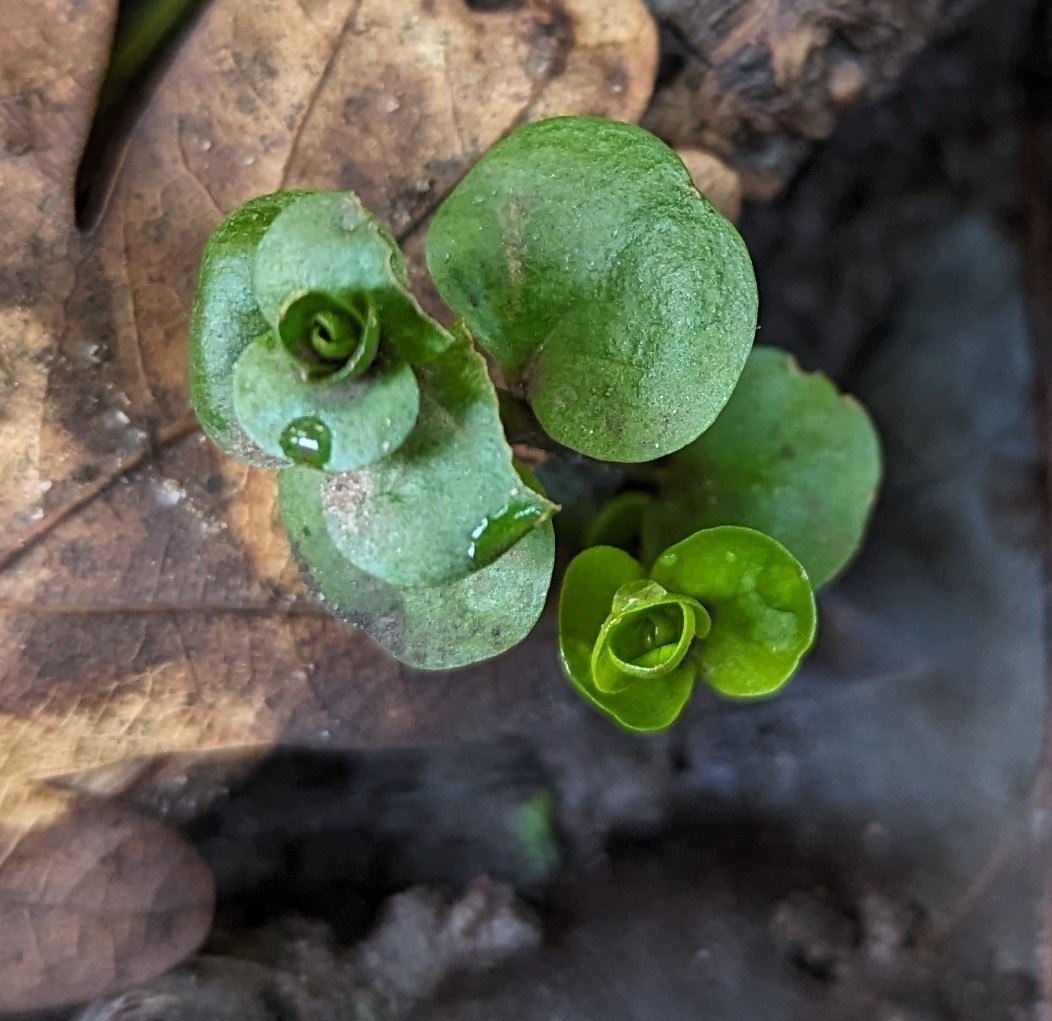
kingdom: Plantae
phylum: Tracheophyta
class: Magnoliopsida
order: Ericales
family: Primulaceae
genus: Lysimachia
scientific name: Lysimachia nummularia
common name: Moneywort
